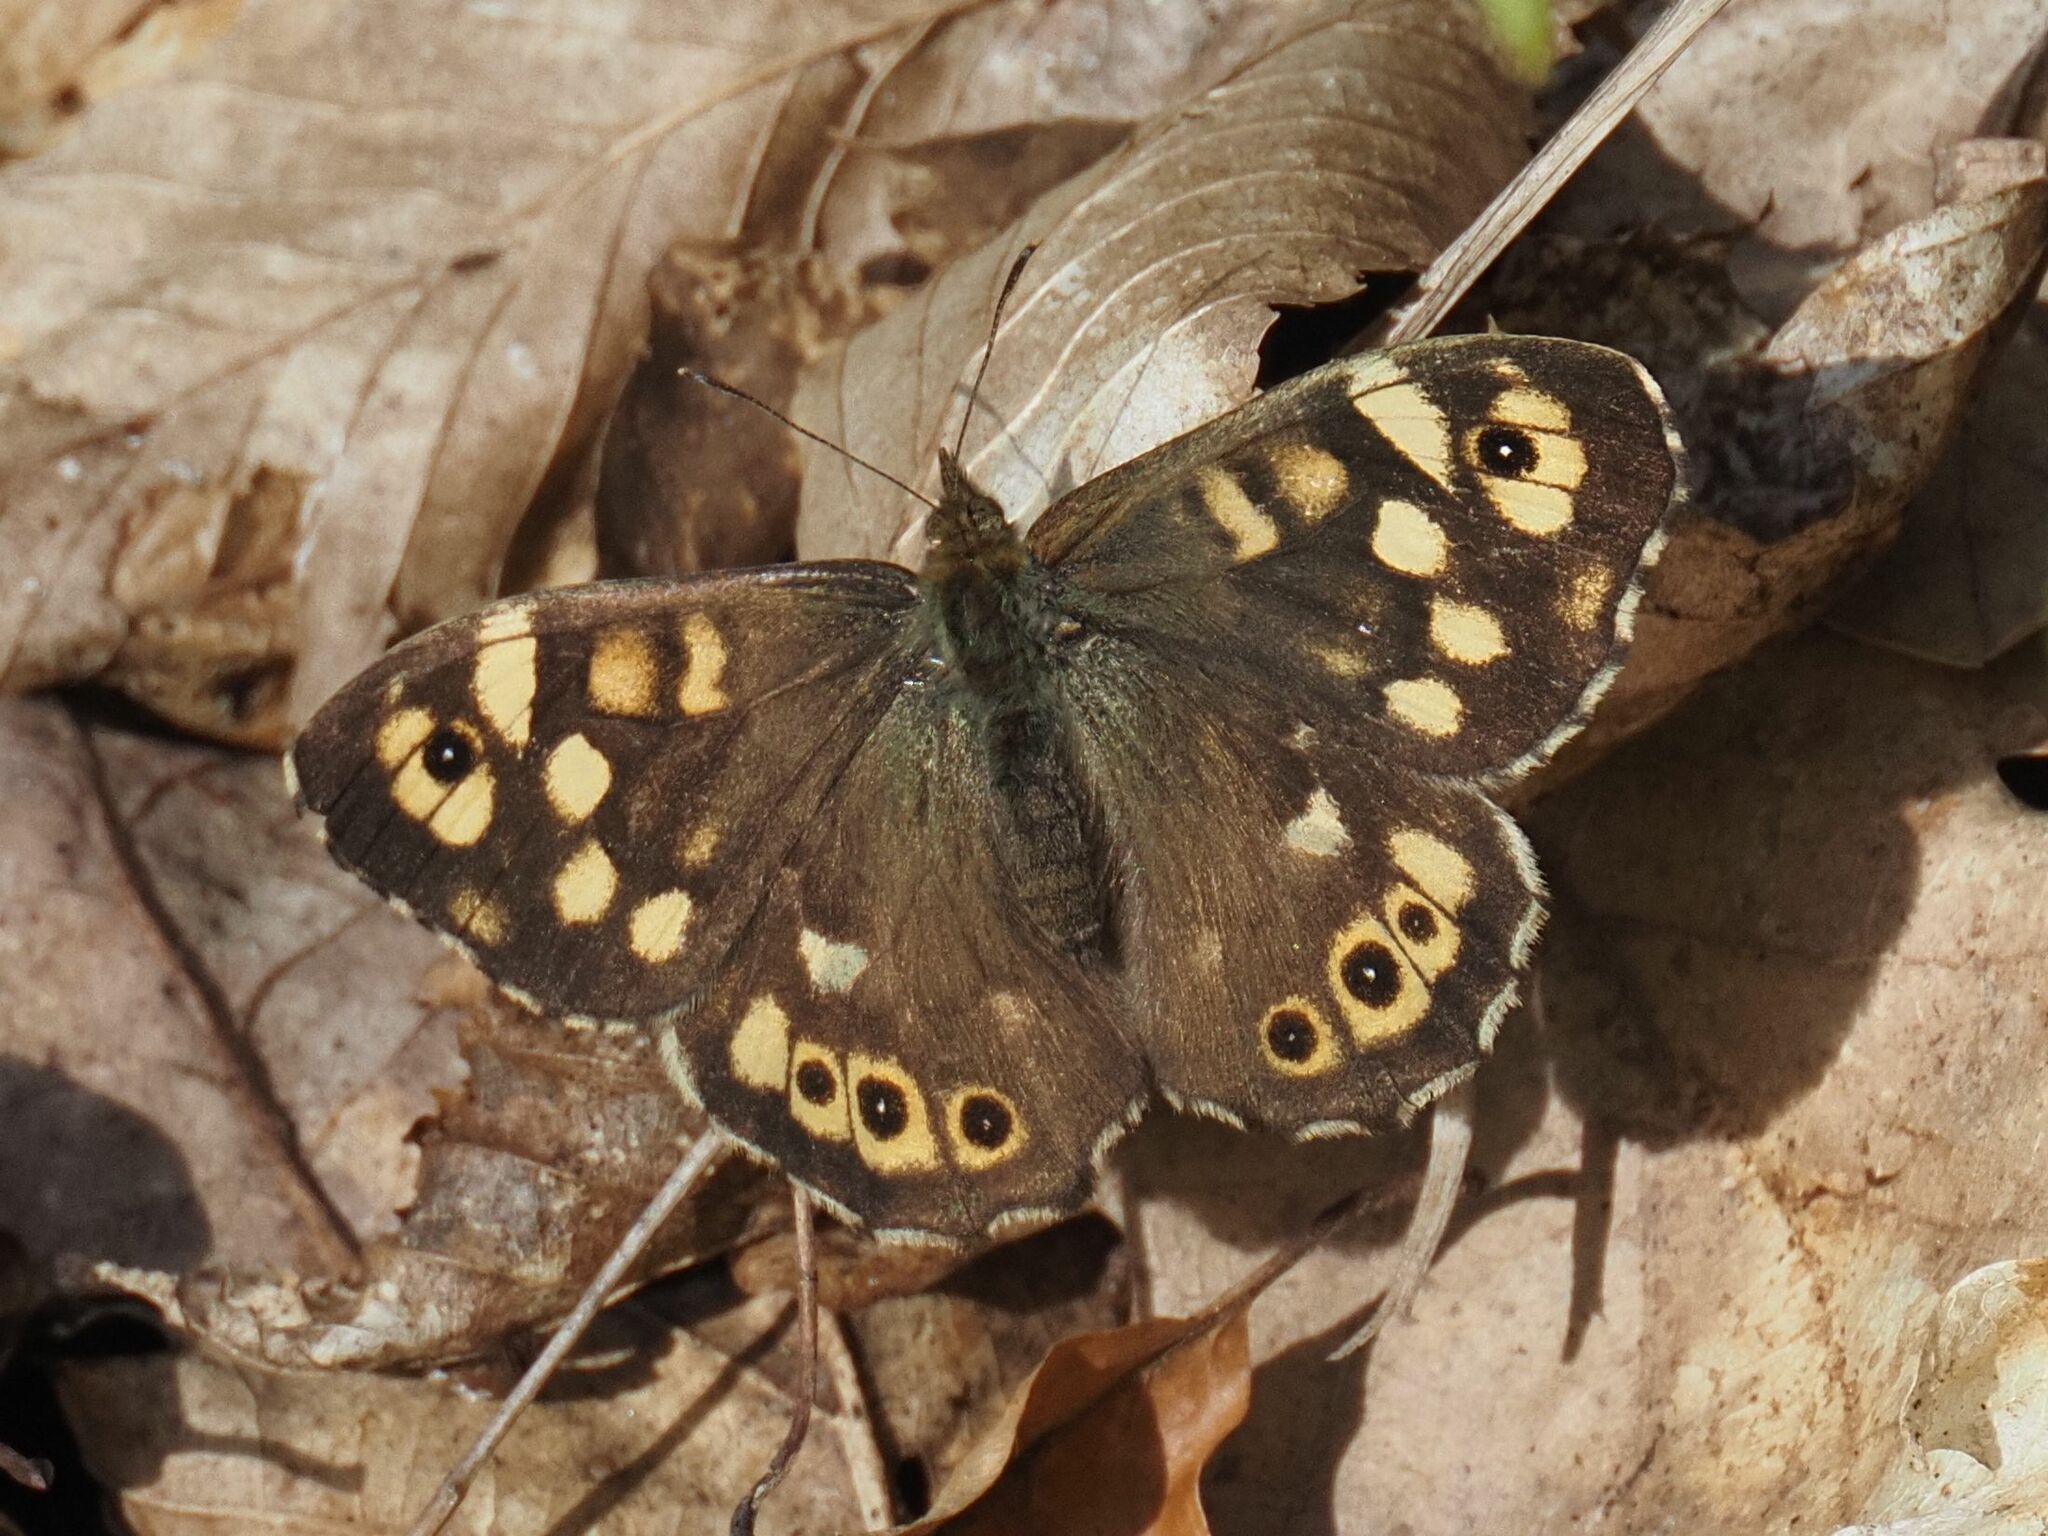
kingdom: Animalia
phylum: Arthropoda
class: Insecta
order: Lepidoptera
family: Nymphalidae
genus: Pararge
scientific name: Pararge aegeria
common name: Speckled wood
